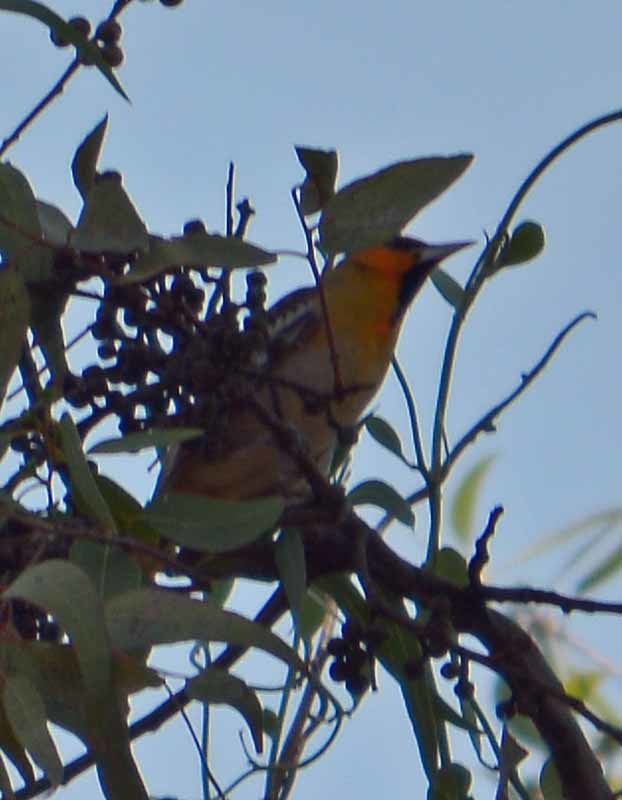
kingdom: Animalia
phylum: Chordata
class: Aves
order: Passeriformes
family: Icteridae
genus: Icterus
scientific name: Icterus abeillei
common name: Black-backed oriole
